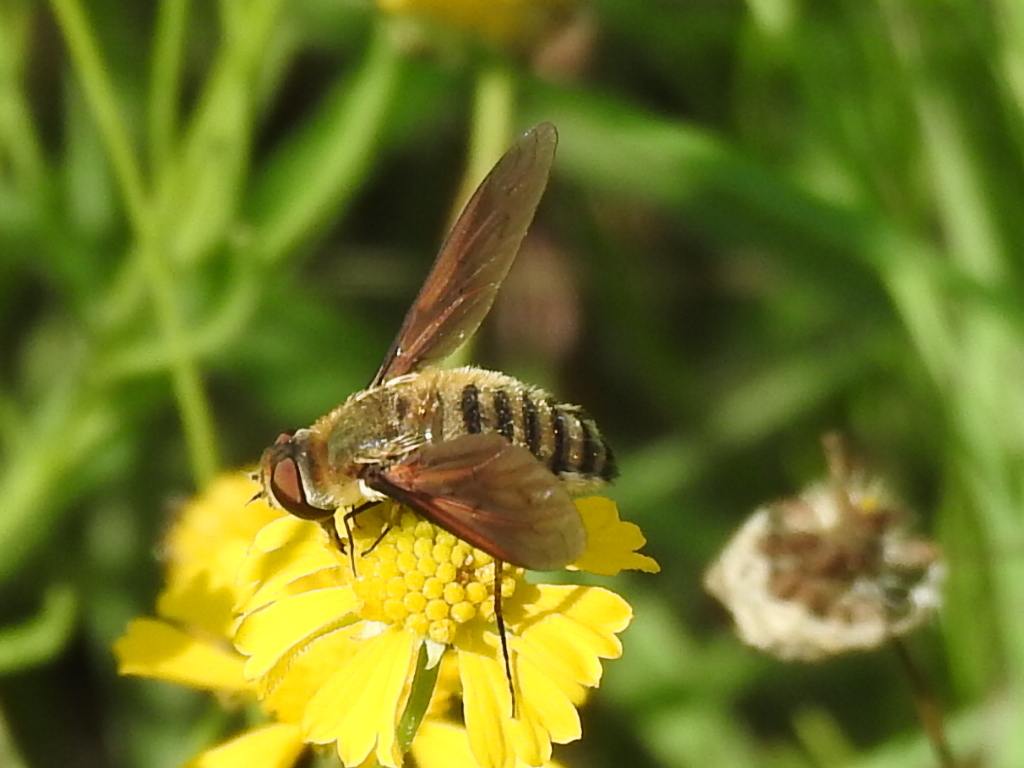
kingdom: Animalia
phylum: Arthropoda
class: Insecta
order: Diptera
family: Bombyliidae
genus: Poecilanthrax
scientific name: Poecilanthrax lucifer
